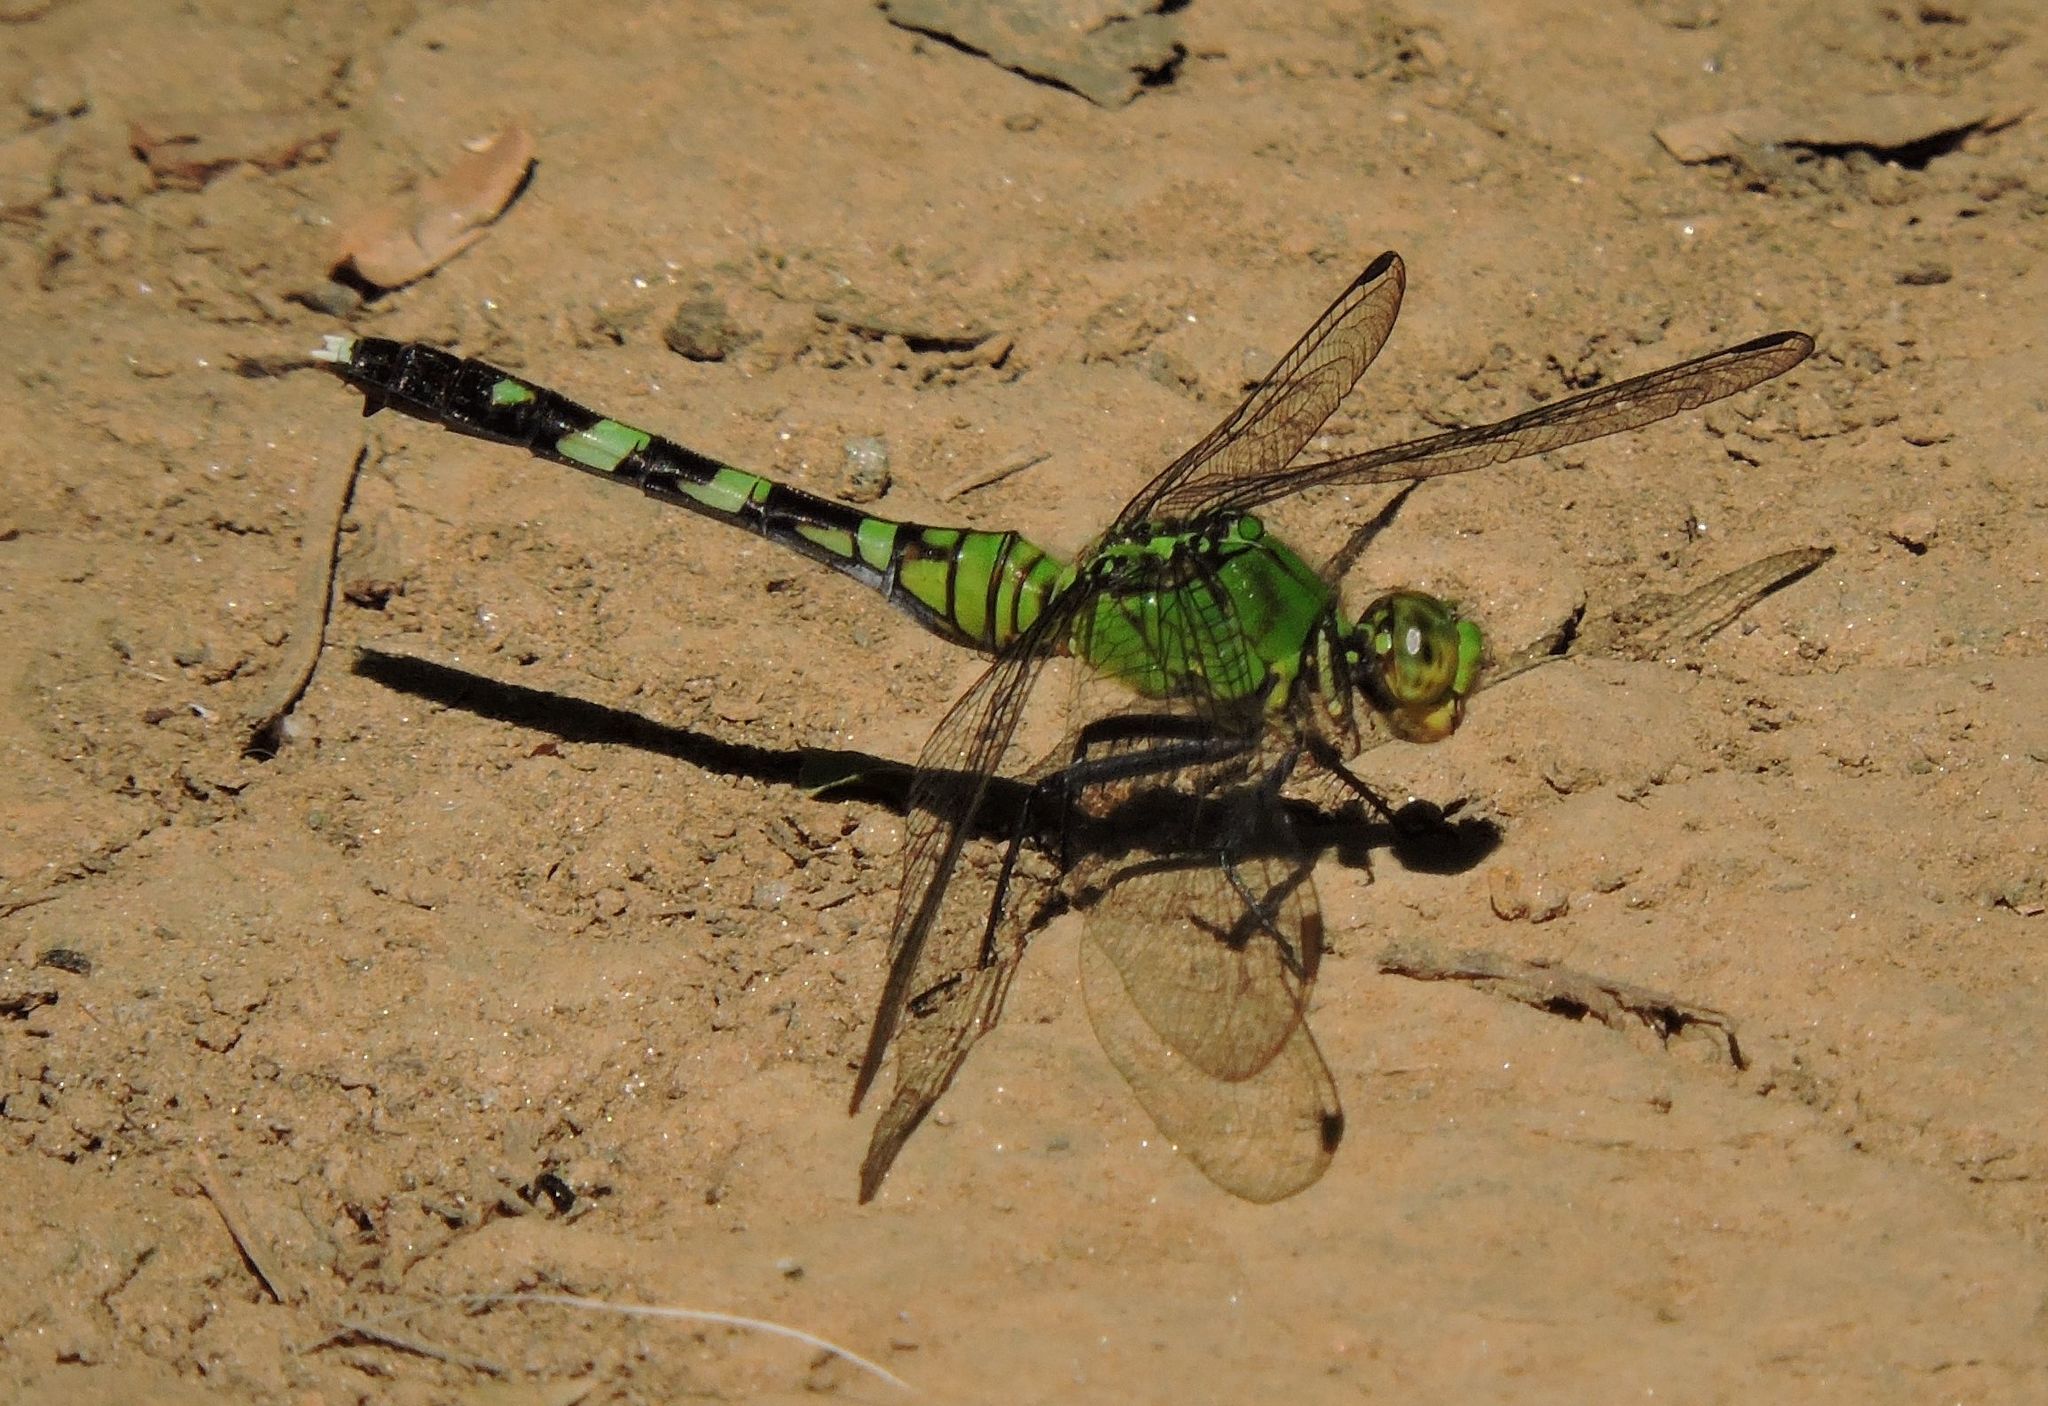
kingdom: Animalia
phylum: Arthropoda
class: Insecta
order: Odonata
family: Libellulidae
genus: Erythemis
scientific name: Erythemis simplicicollis
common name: Eastern pondhawk
